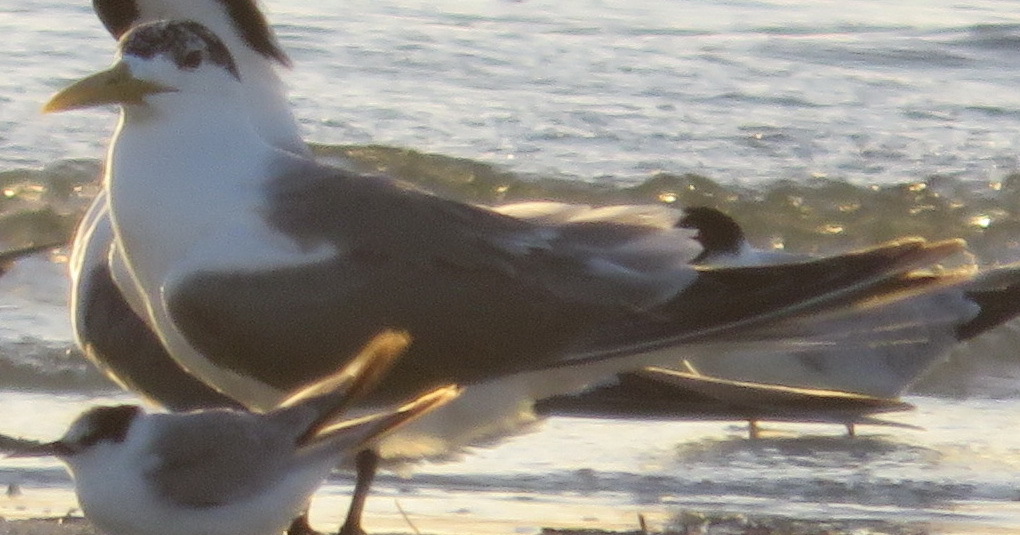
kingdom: Animalia
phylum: Chordata
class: Aves
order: Charadriiformes
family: Laridae
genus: Thalasseus
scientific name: Thalasseus bergii
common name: Greater crested tern
